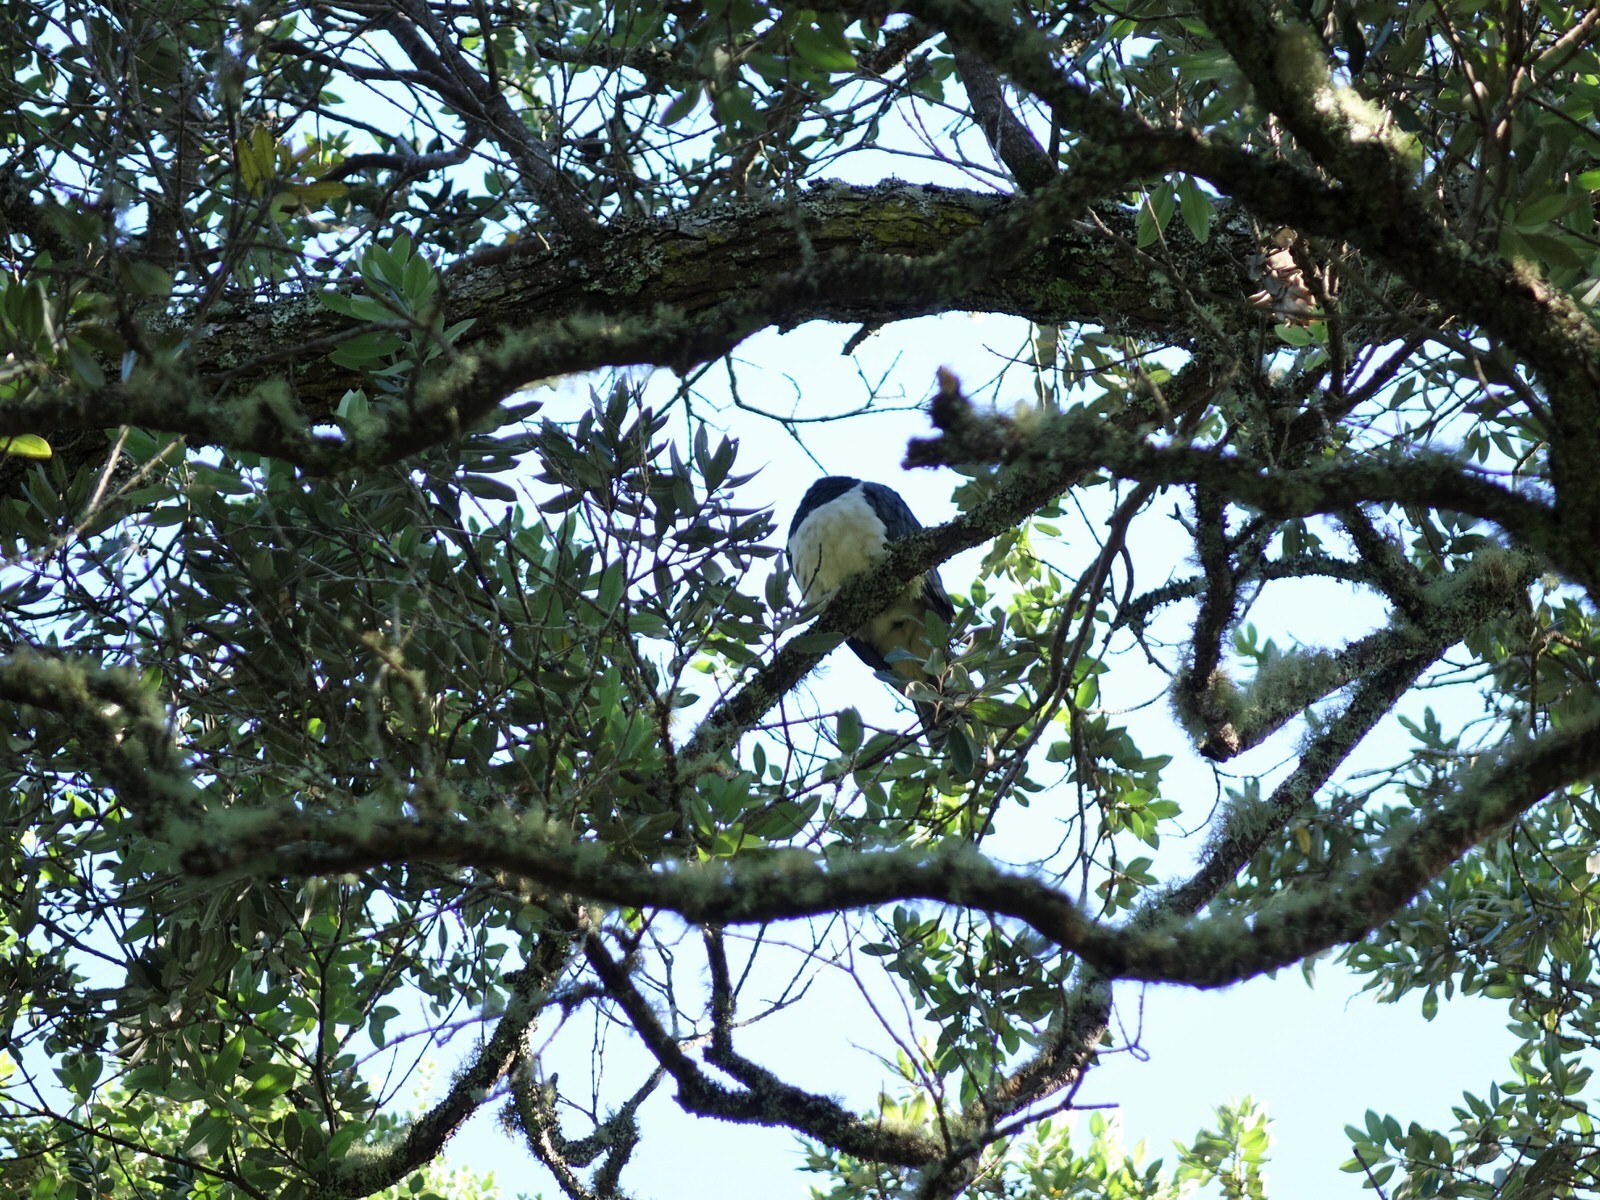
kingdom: Animalia
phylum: Chordata
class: Aves
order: Columbiformes
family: Columbidae
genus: Hemiphaga
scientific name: Hemiphaga novaeseelandiae
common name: New zealand pigeon
